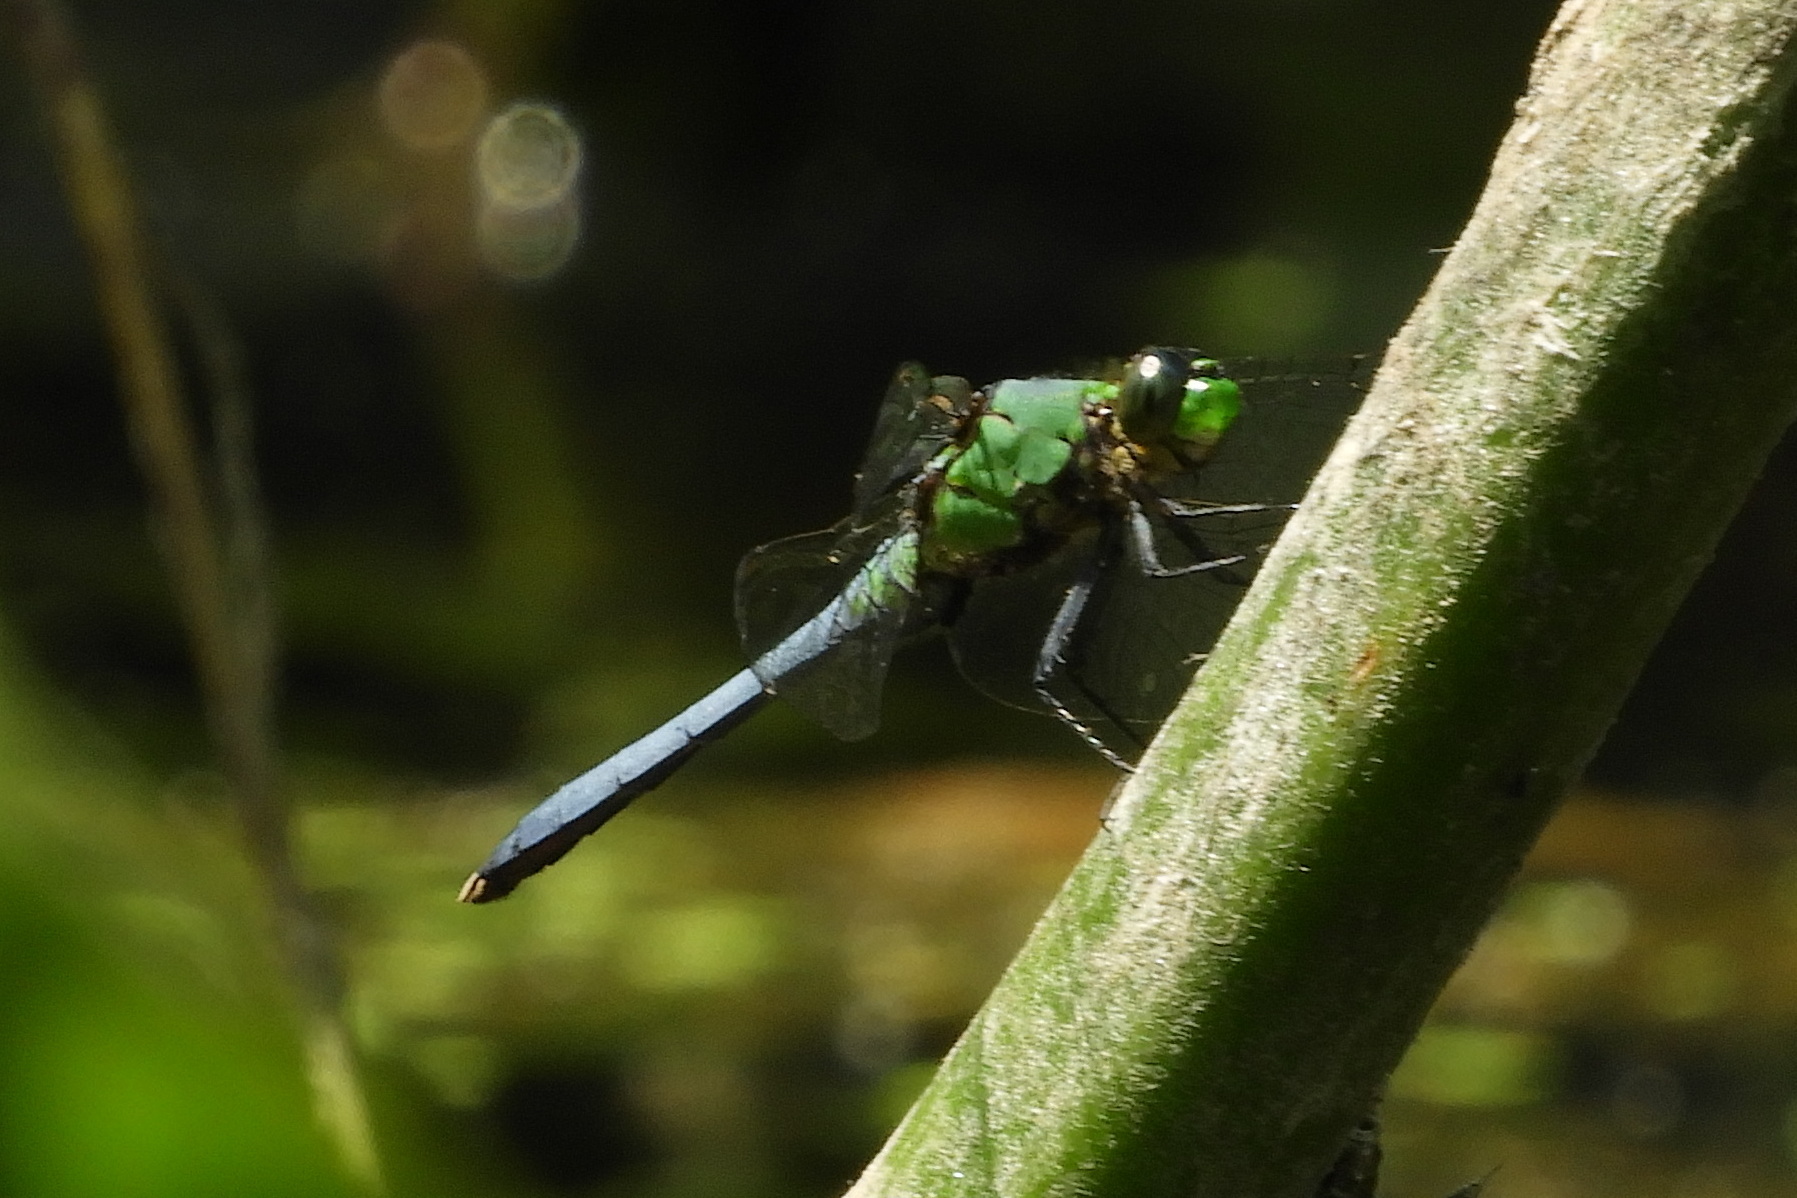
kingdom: Animalia
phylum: Arthropoda
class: Insecta
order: Odonata
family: Libellulidae
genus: Erythemis
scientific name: Erythemis simplicicollis
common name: Eastern pondhawk
